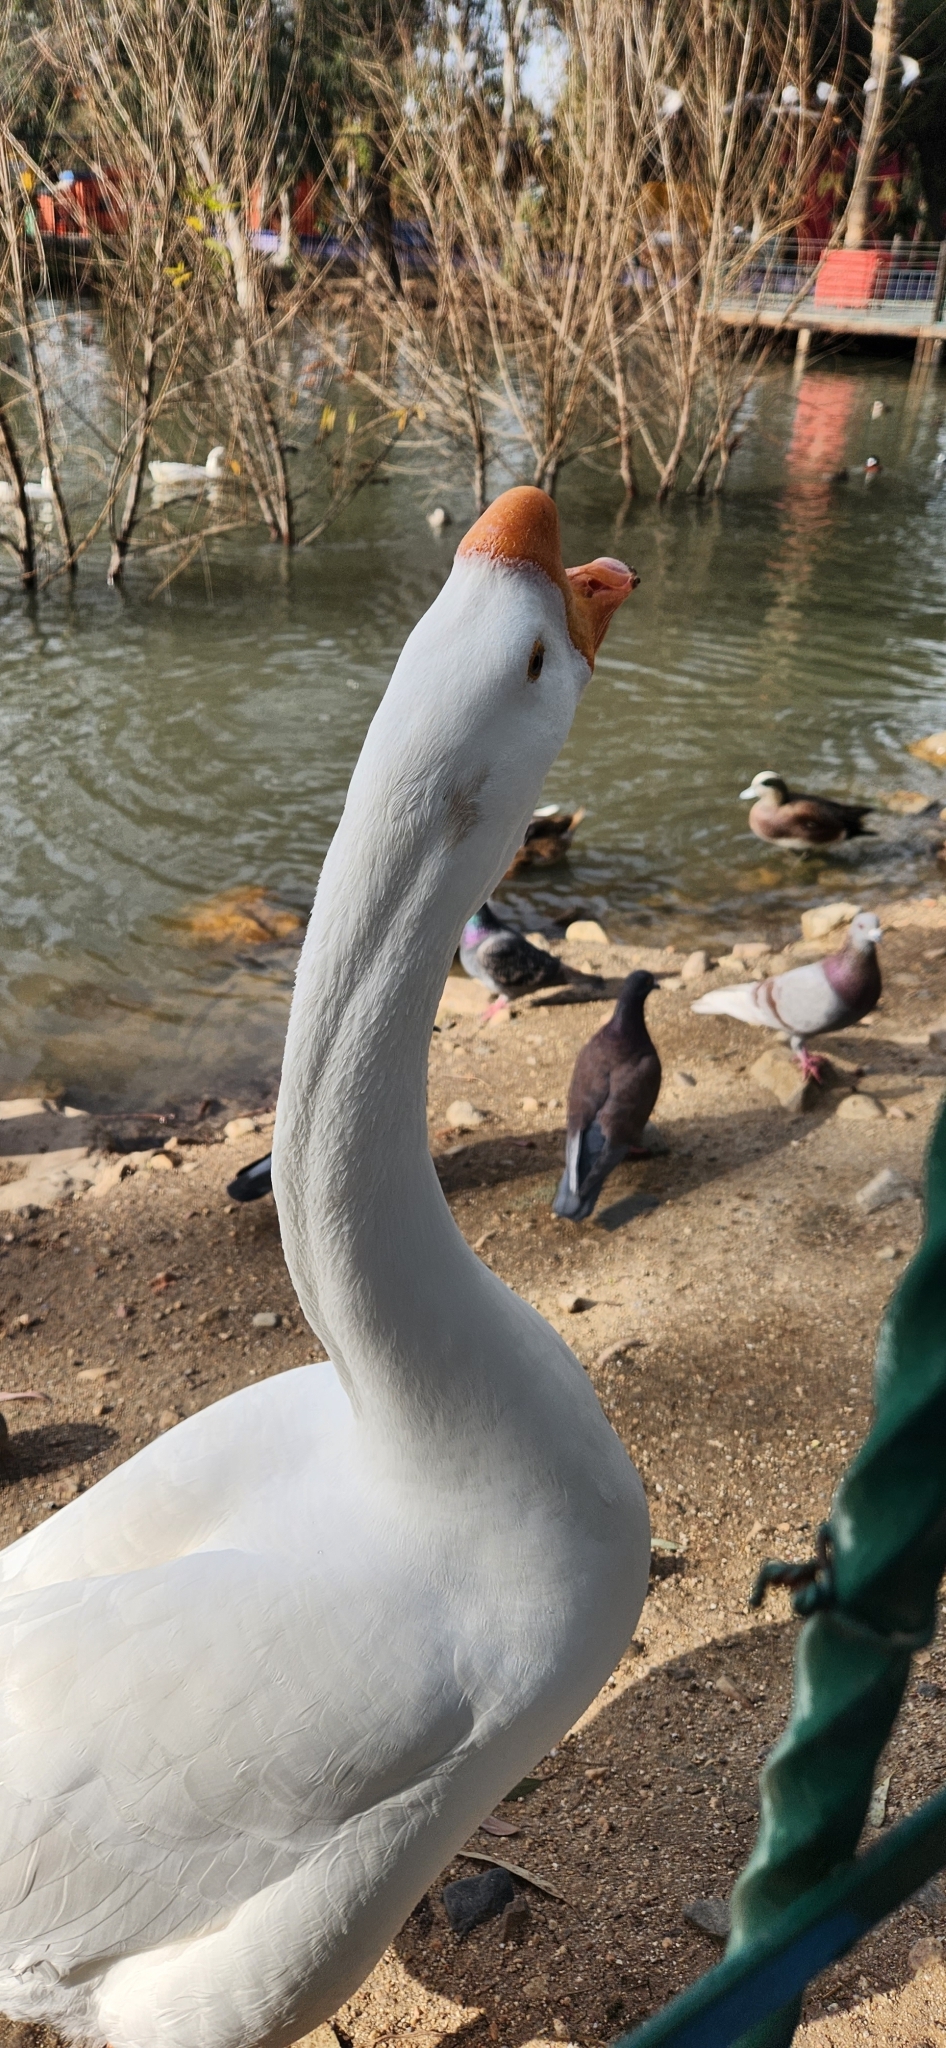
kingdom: Animalia
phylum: Chordata
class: Aves
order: Anseriformes
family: Anatidae
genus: Anser
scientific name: Anser cygnoides
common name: Swan goose
